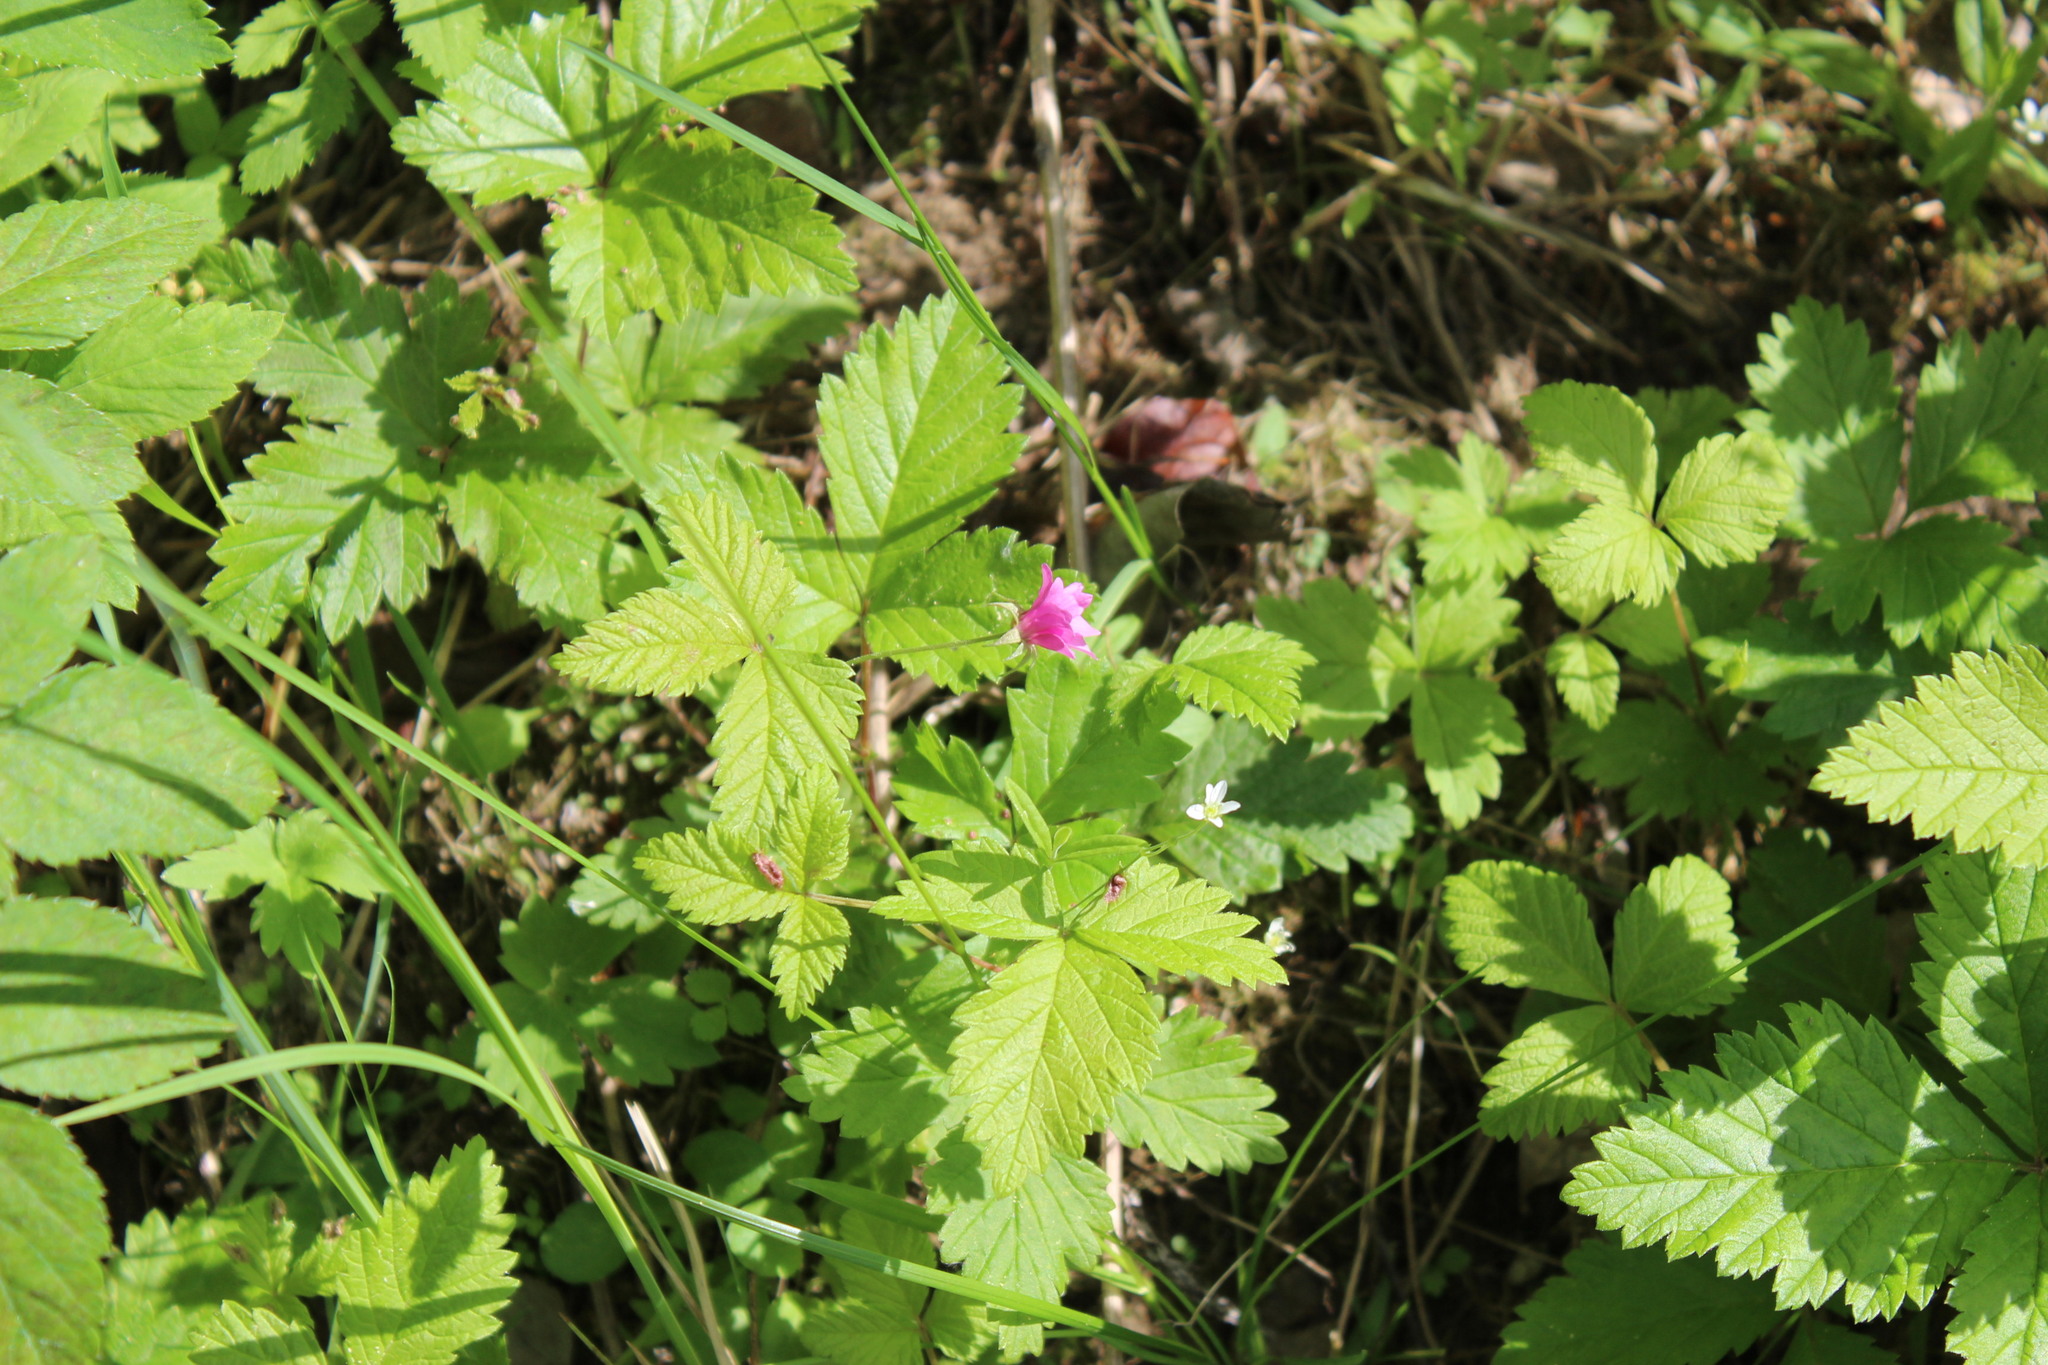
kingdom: Plantae
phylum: Tracheophyta
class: Magnoliopsida
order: Rosales
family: Rosaceae
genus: Rubus
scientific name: Rubus arcticus
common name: Arctic bramble
